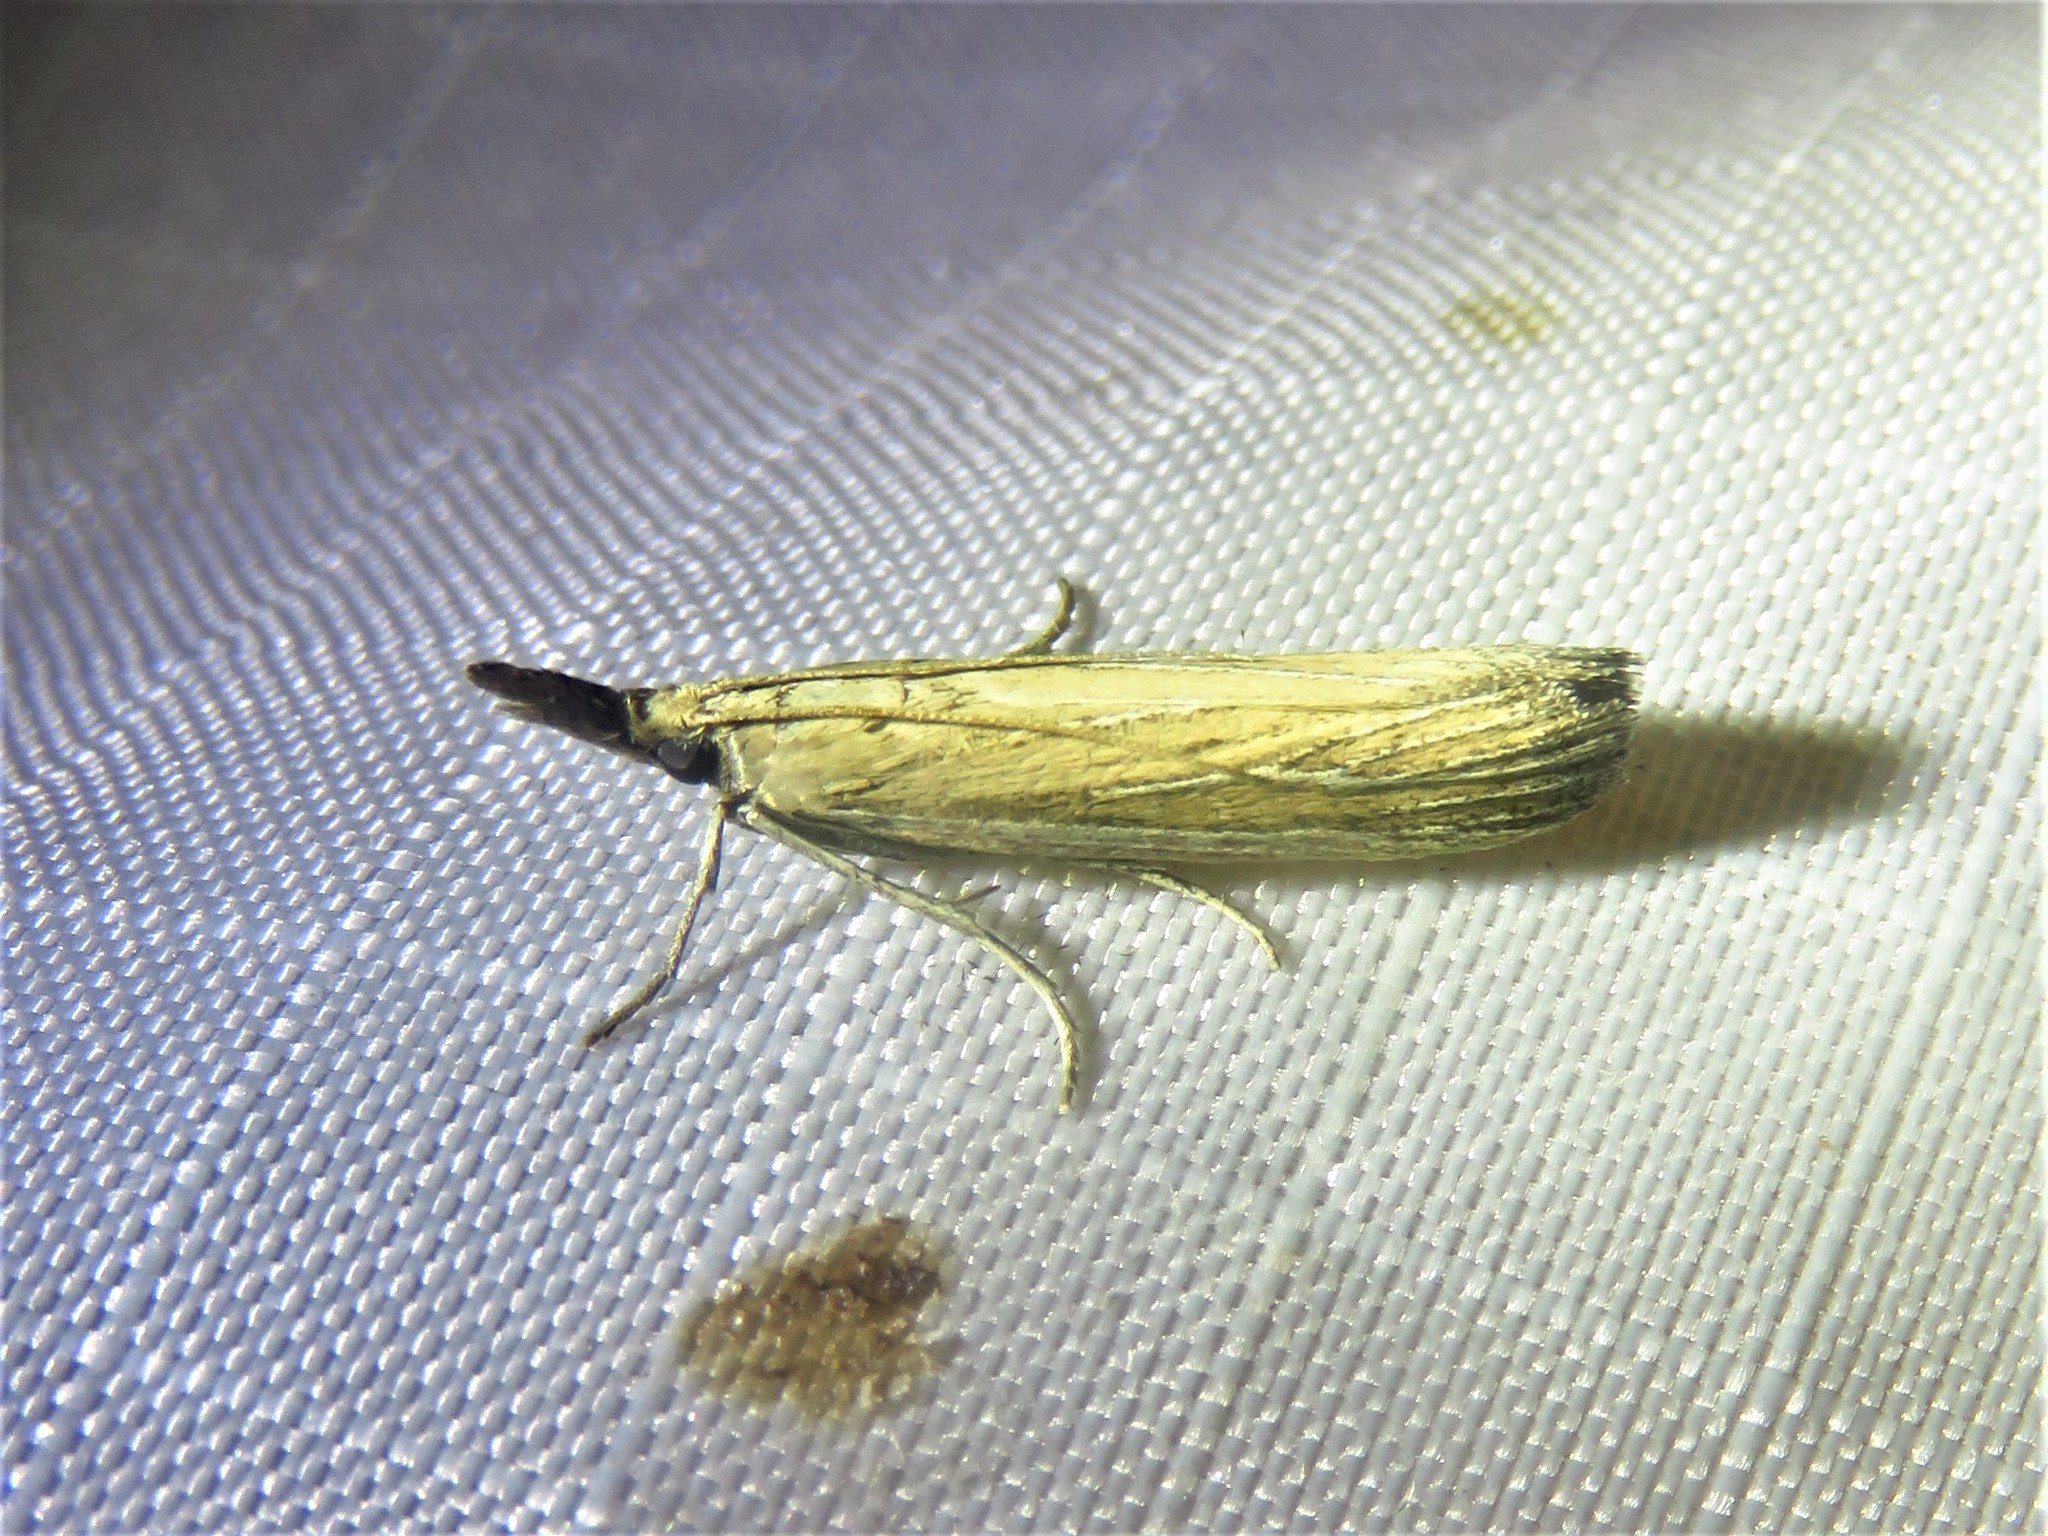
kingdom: Animalia
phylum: Arthropoda
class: Insecta
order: Lepidoptera
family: Pyralidae
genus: Peoria
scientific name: Peoria tetradella
